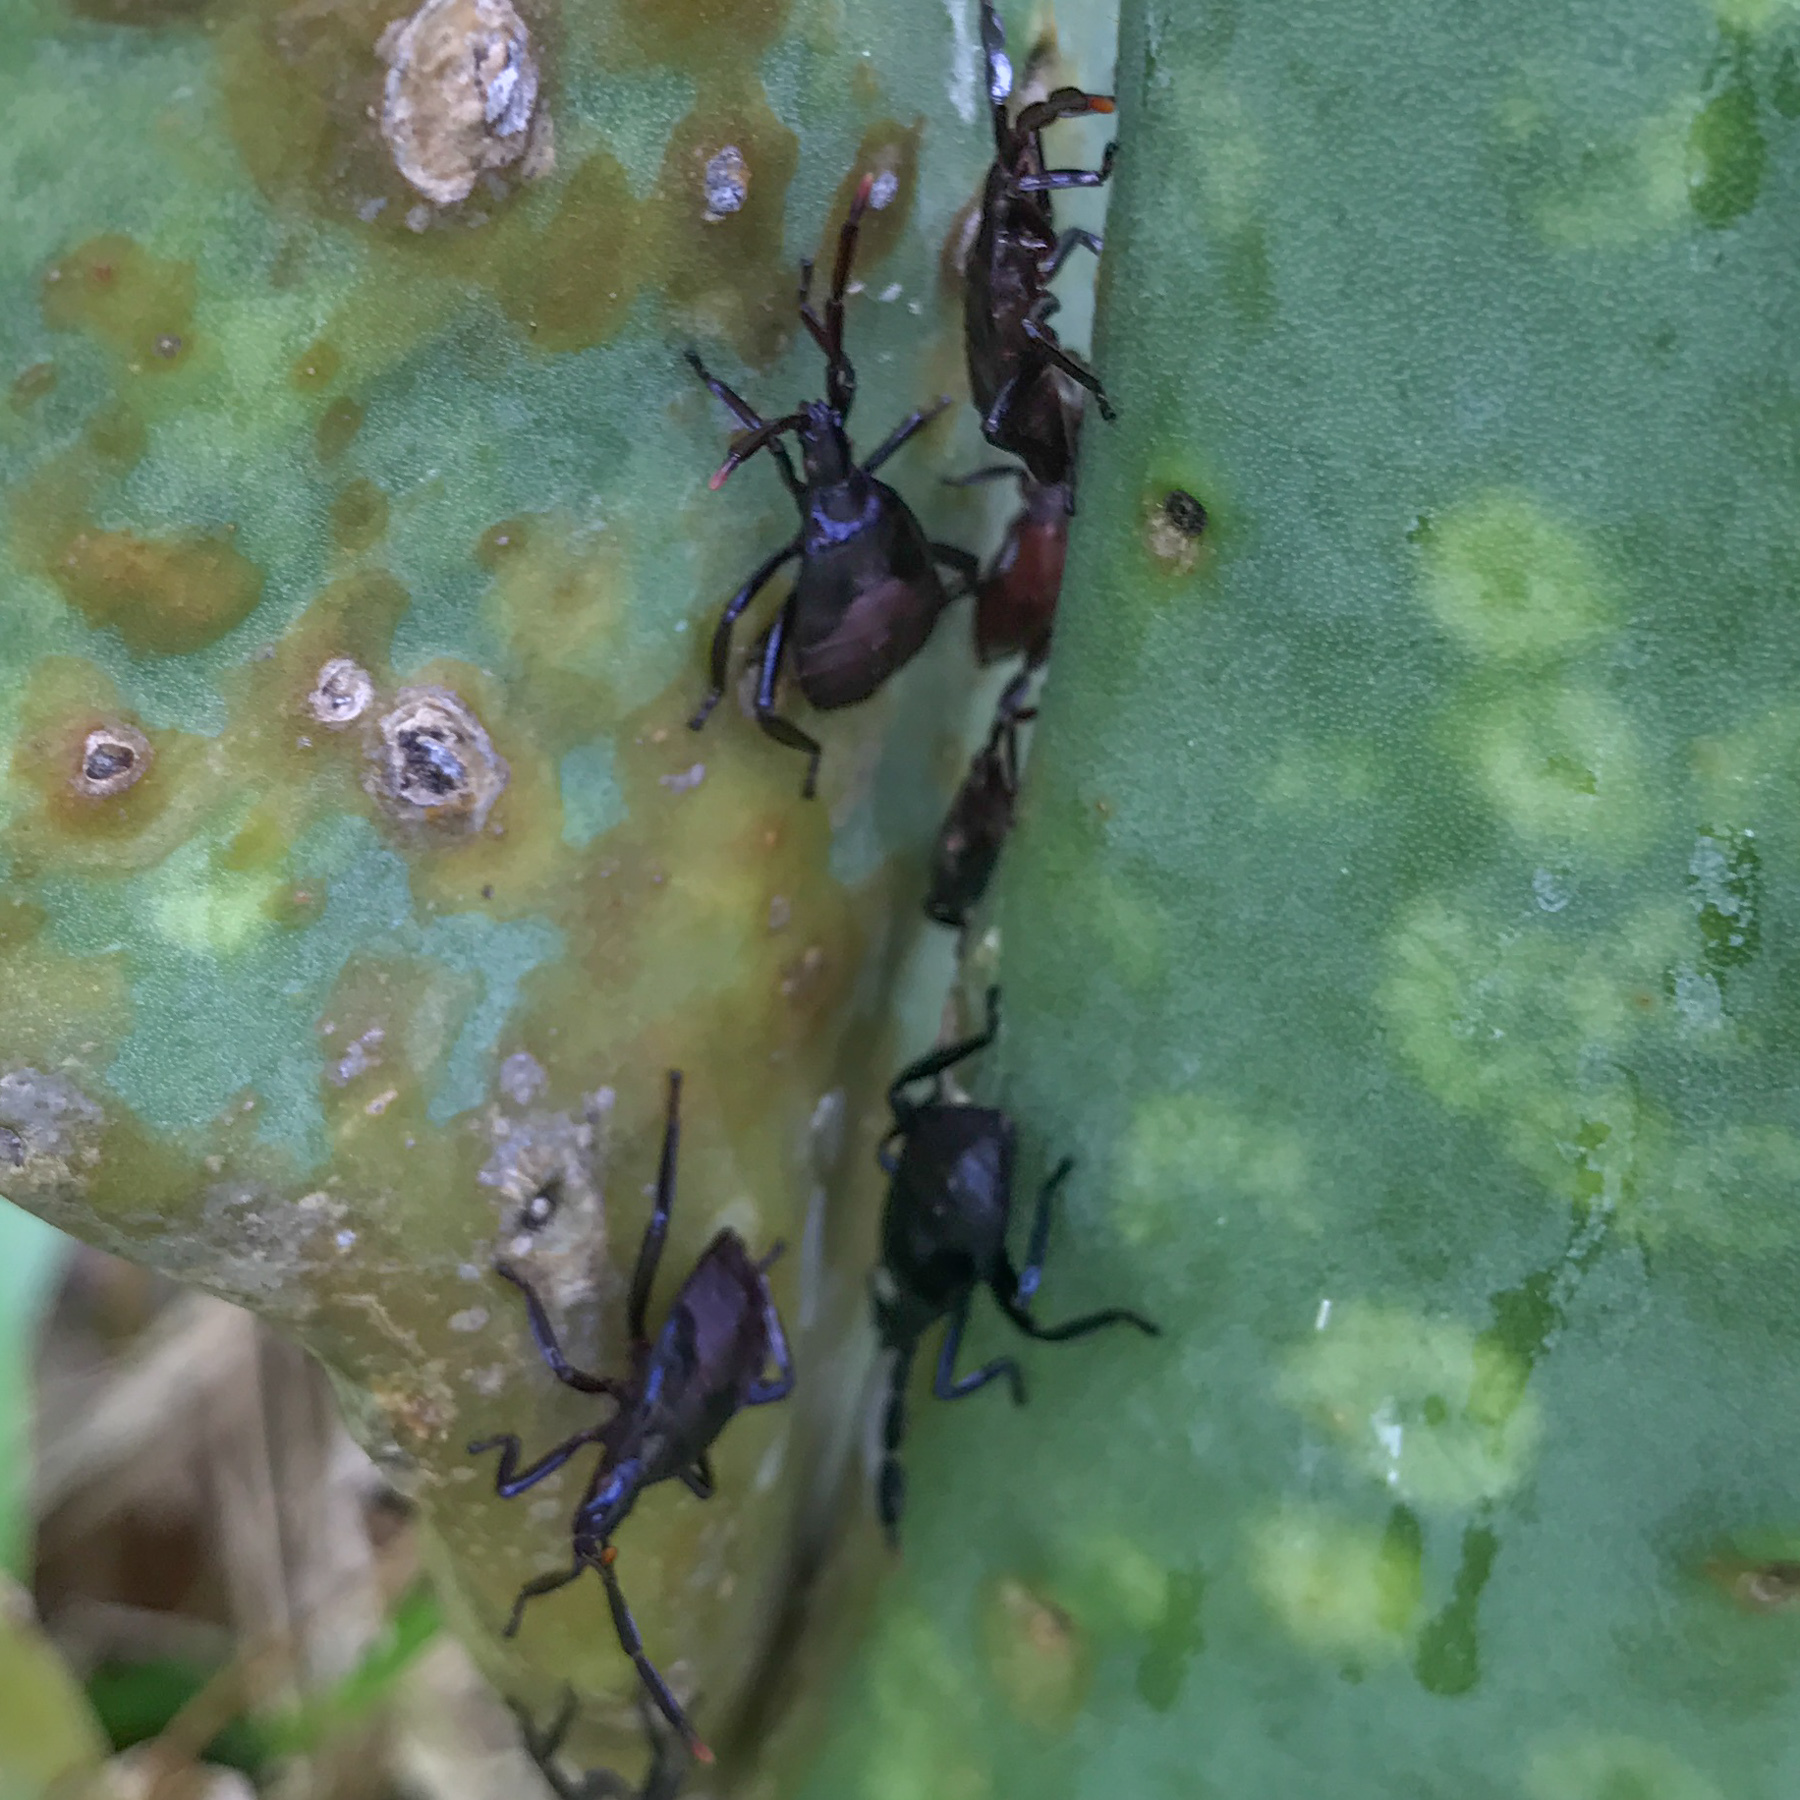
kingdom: Animalia
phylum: Arthropoda
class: Insecta
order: Hemiptera
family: Coreidae
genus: Chelinidea
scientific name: Chelinidea vittiger
